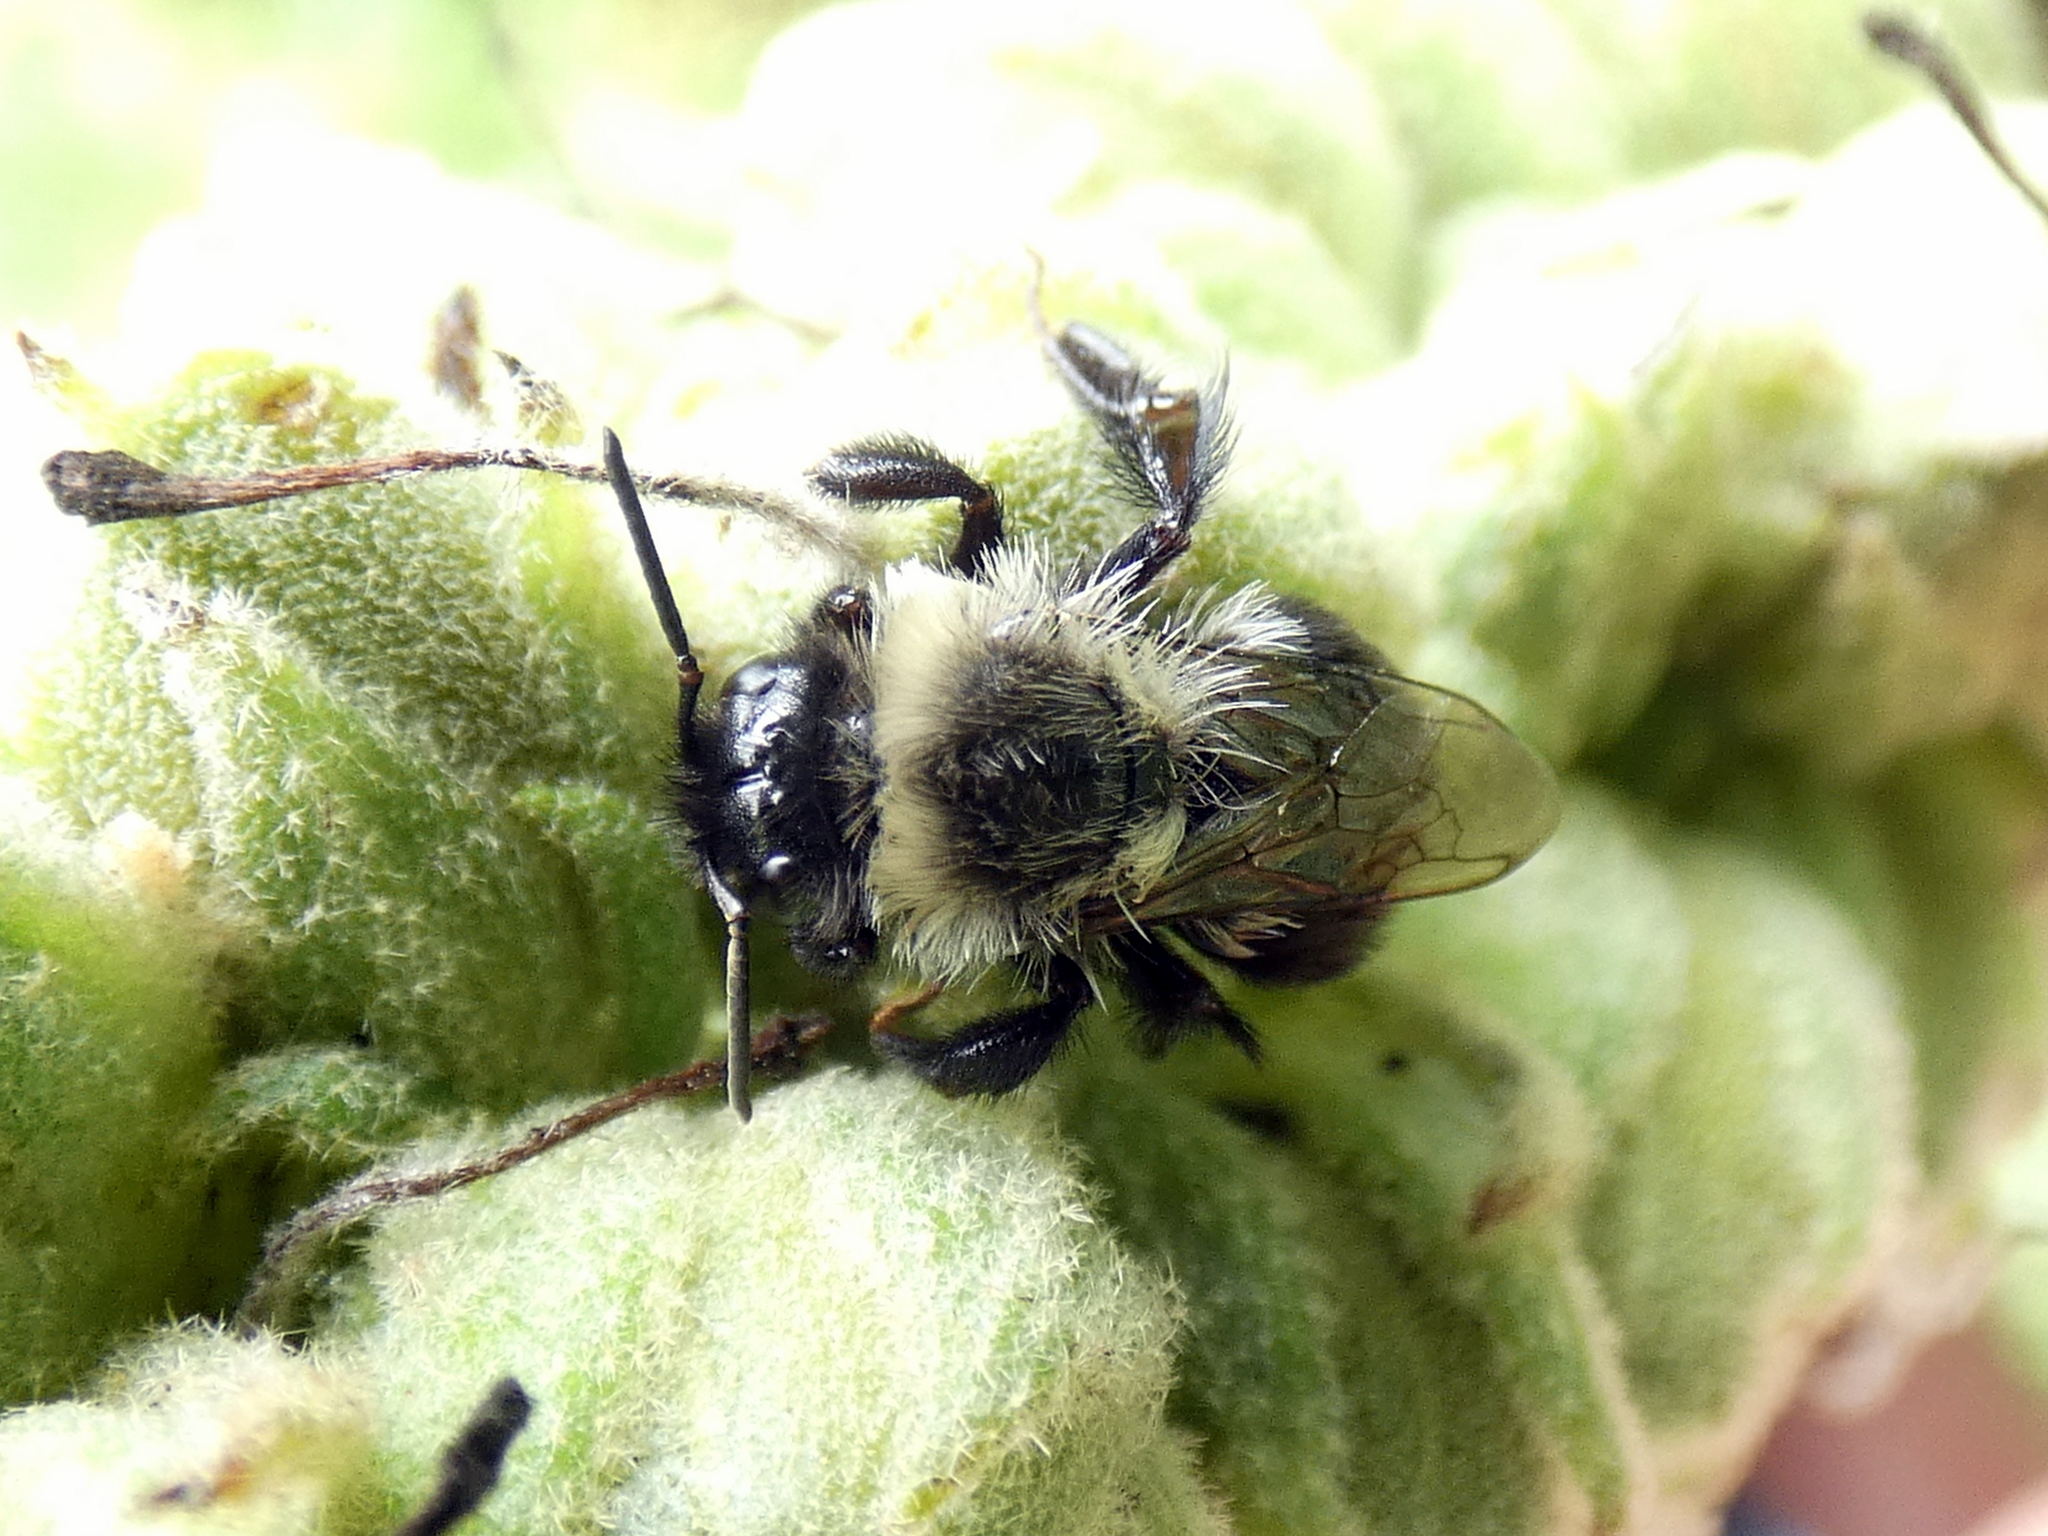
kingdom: Animalia
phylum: Arthropoda
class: Insecta
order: Hymenoptera
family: Apidae
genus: Bombus
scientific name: Bombus impatiens
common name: Common eastern bumble bee
